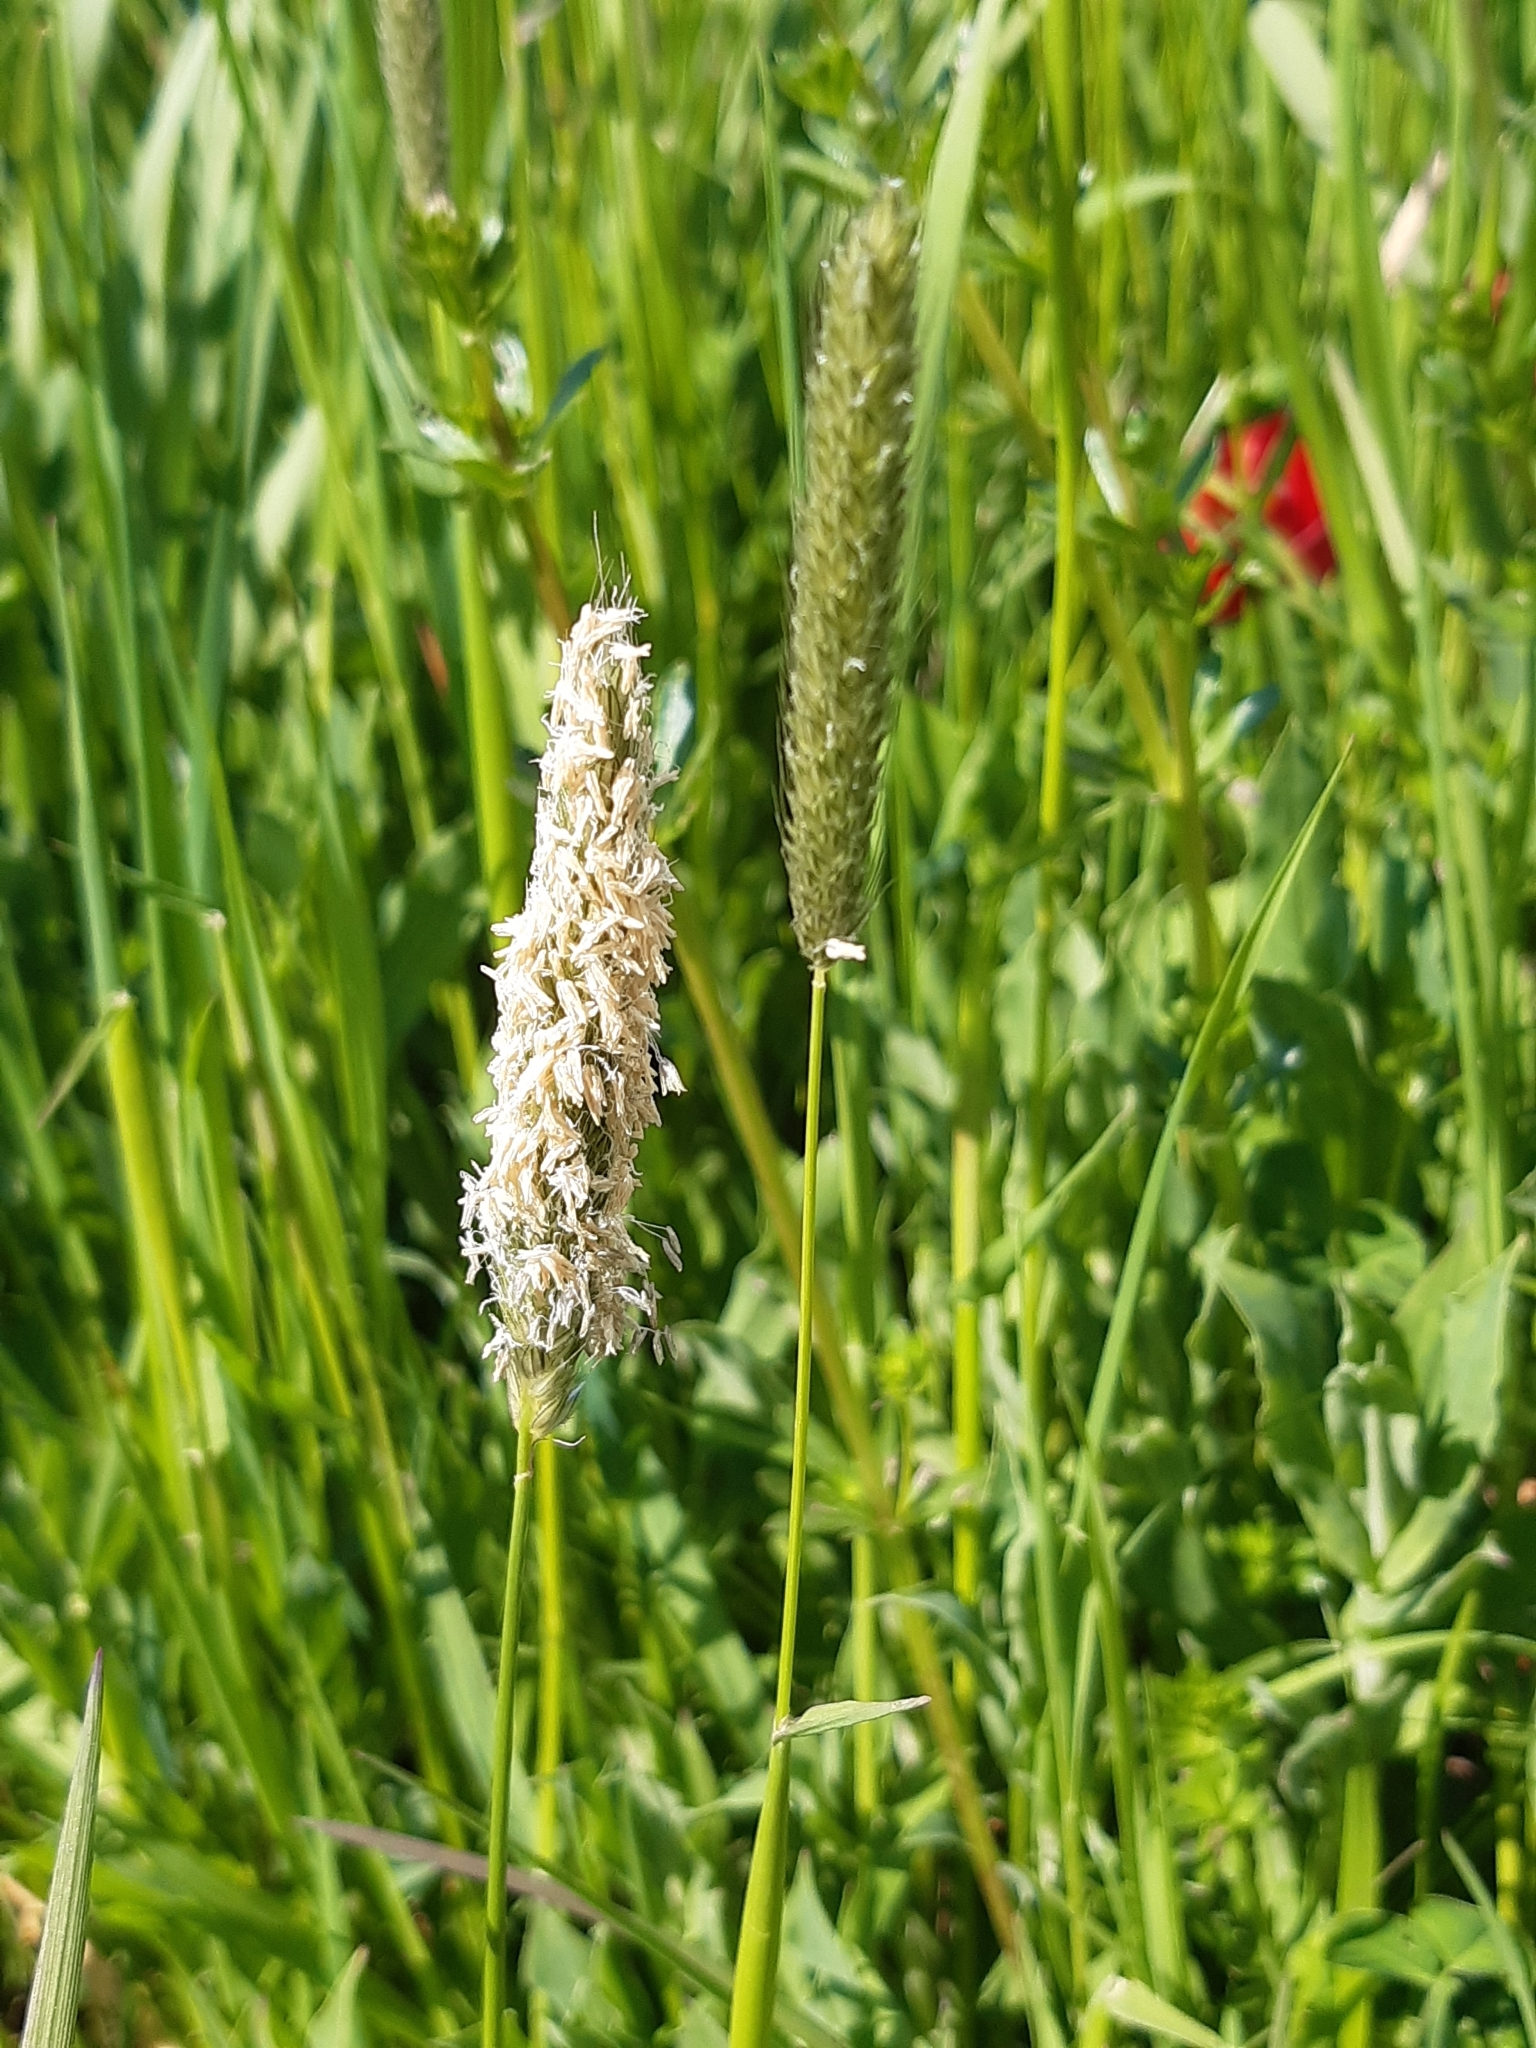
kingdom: Plantae
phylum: Tracheophyta
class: Liliopsida
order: Poales
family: Poaceae
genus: Alopecurus
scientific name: Alopecurus pratensis
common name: Meadow foxtail
